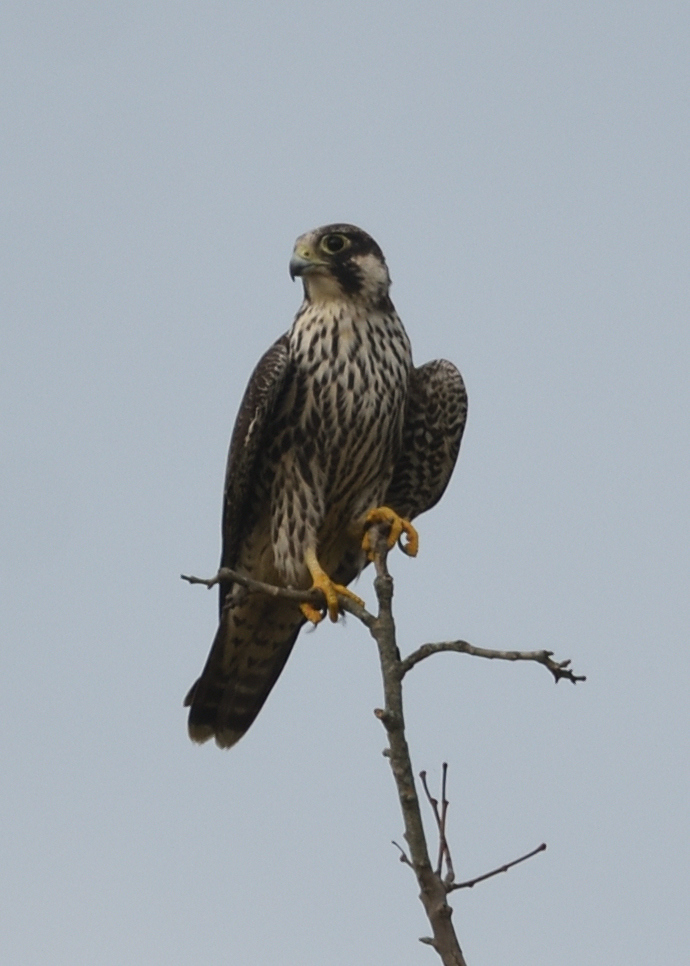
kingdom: Animalia
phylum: Chordata
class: Aves
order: Falconiformes
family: Falconidae
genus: Falco
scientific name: Falco peregrinus
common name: Peregrine falcon
